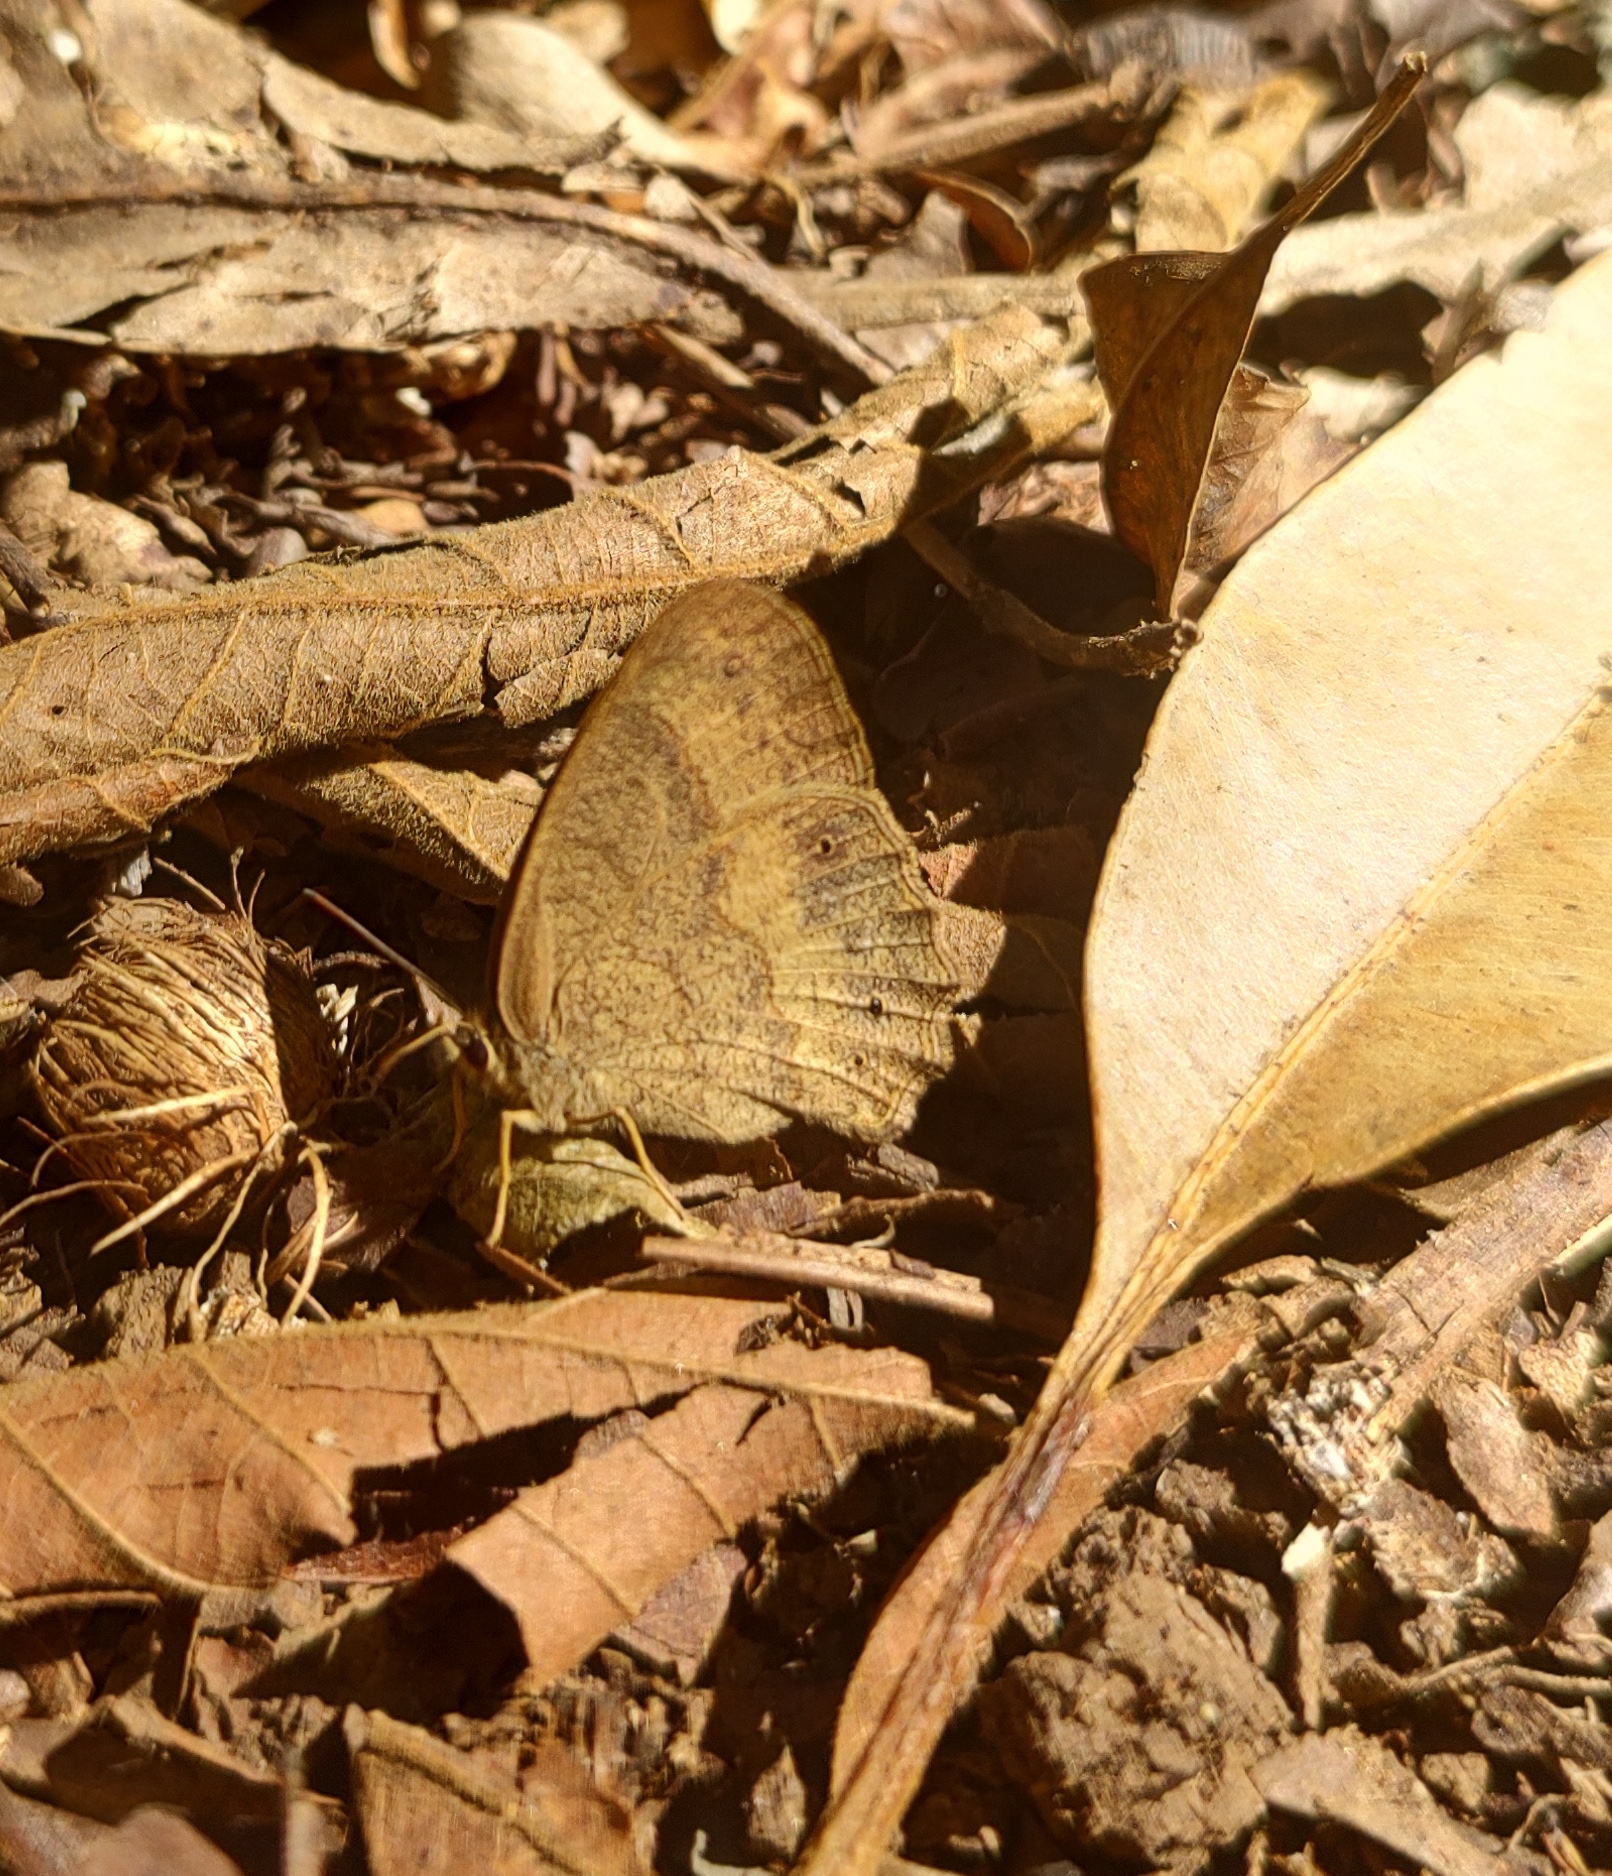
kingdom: Animalia
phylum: Arthropoda
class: Insecta
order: Lepidoptera
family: Nymphalidae
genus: Moneuptychia
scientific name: Moneuptychia soter
